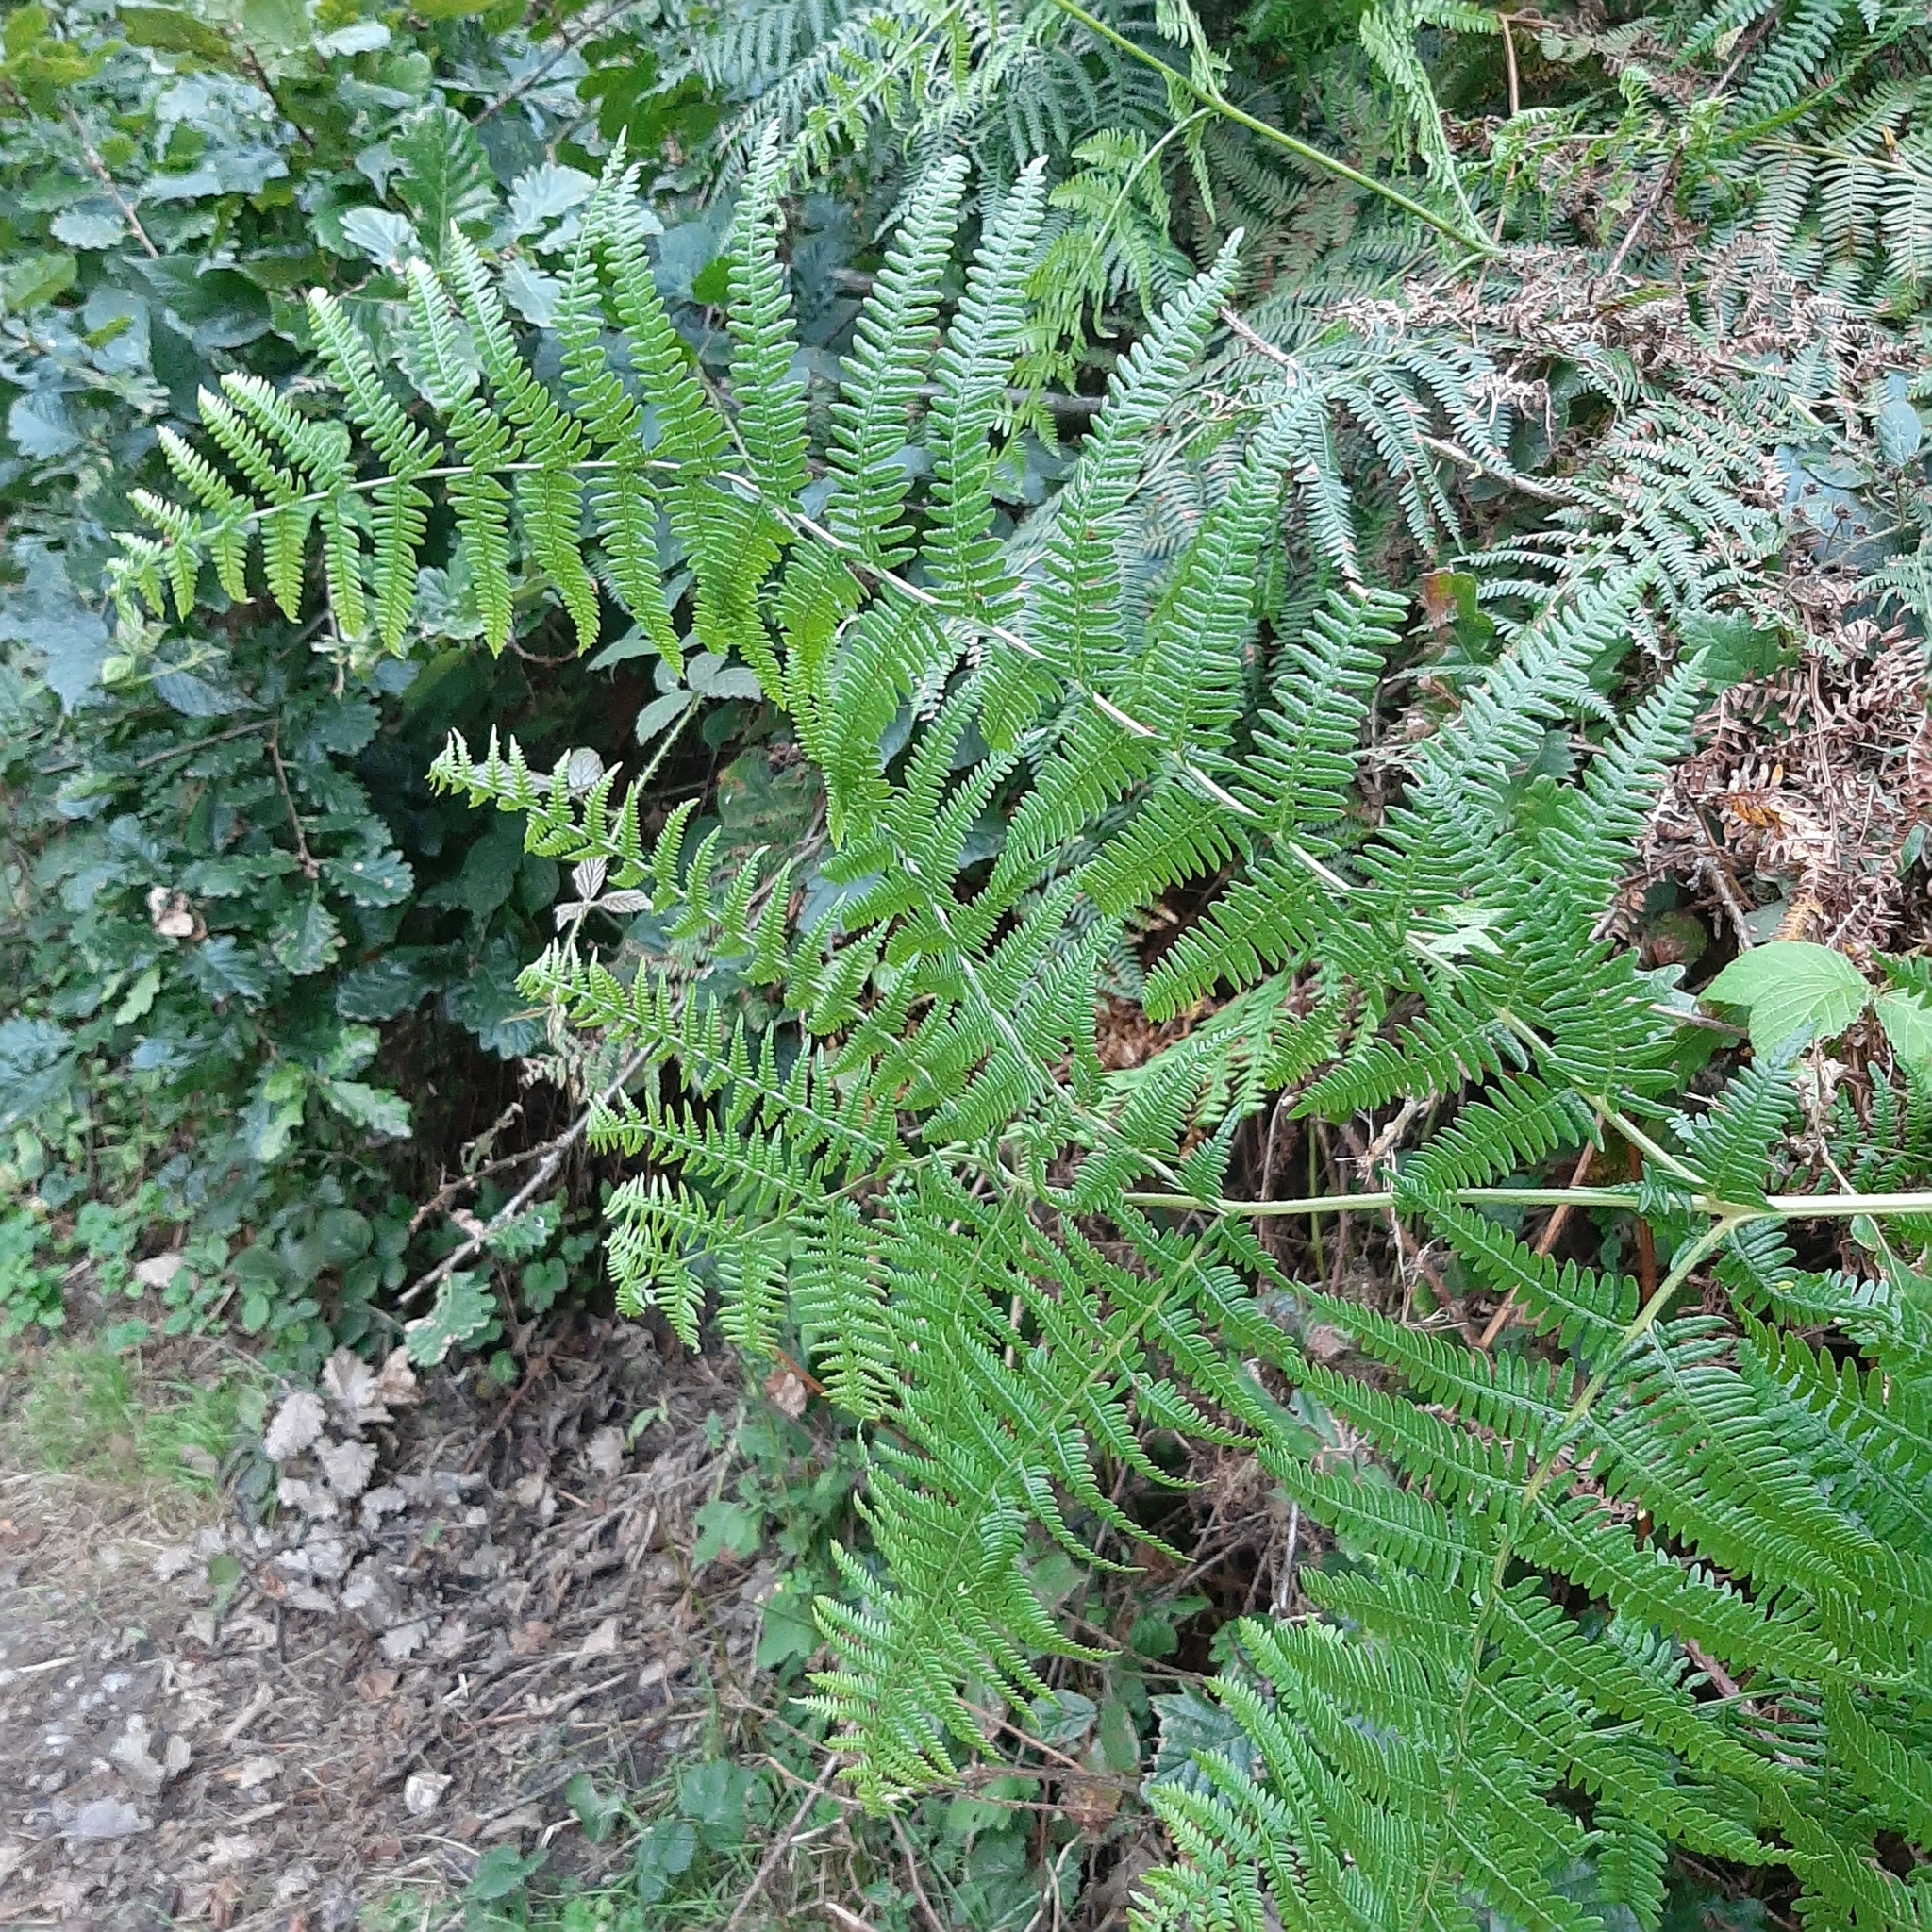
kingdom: Plantae
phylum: Tracheophyta
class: Polypodiopsida
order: Polypodiales
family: Dennstaedtiaceae
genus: Pteridium
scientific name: Pteridium aquilinum
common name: Bracken
